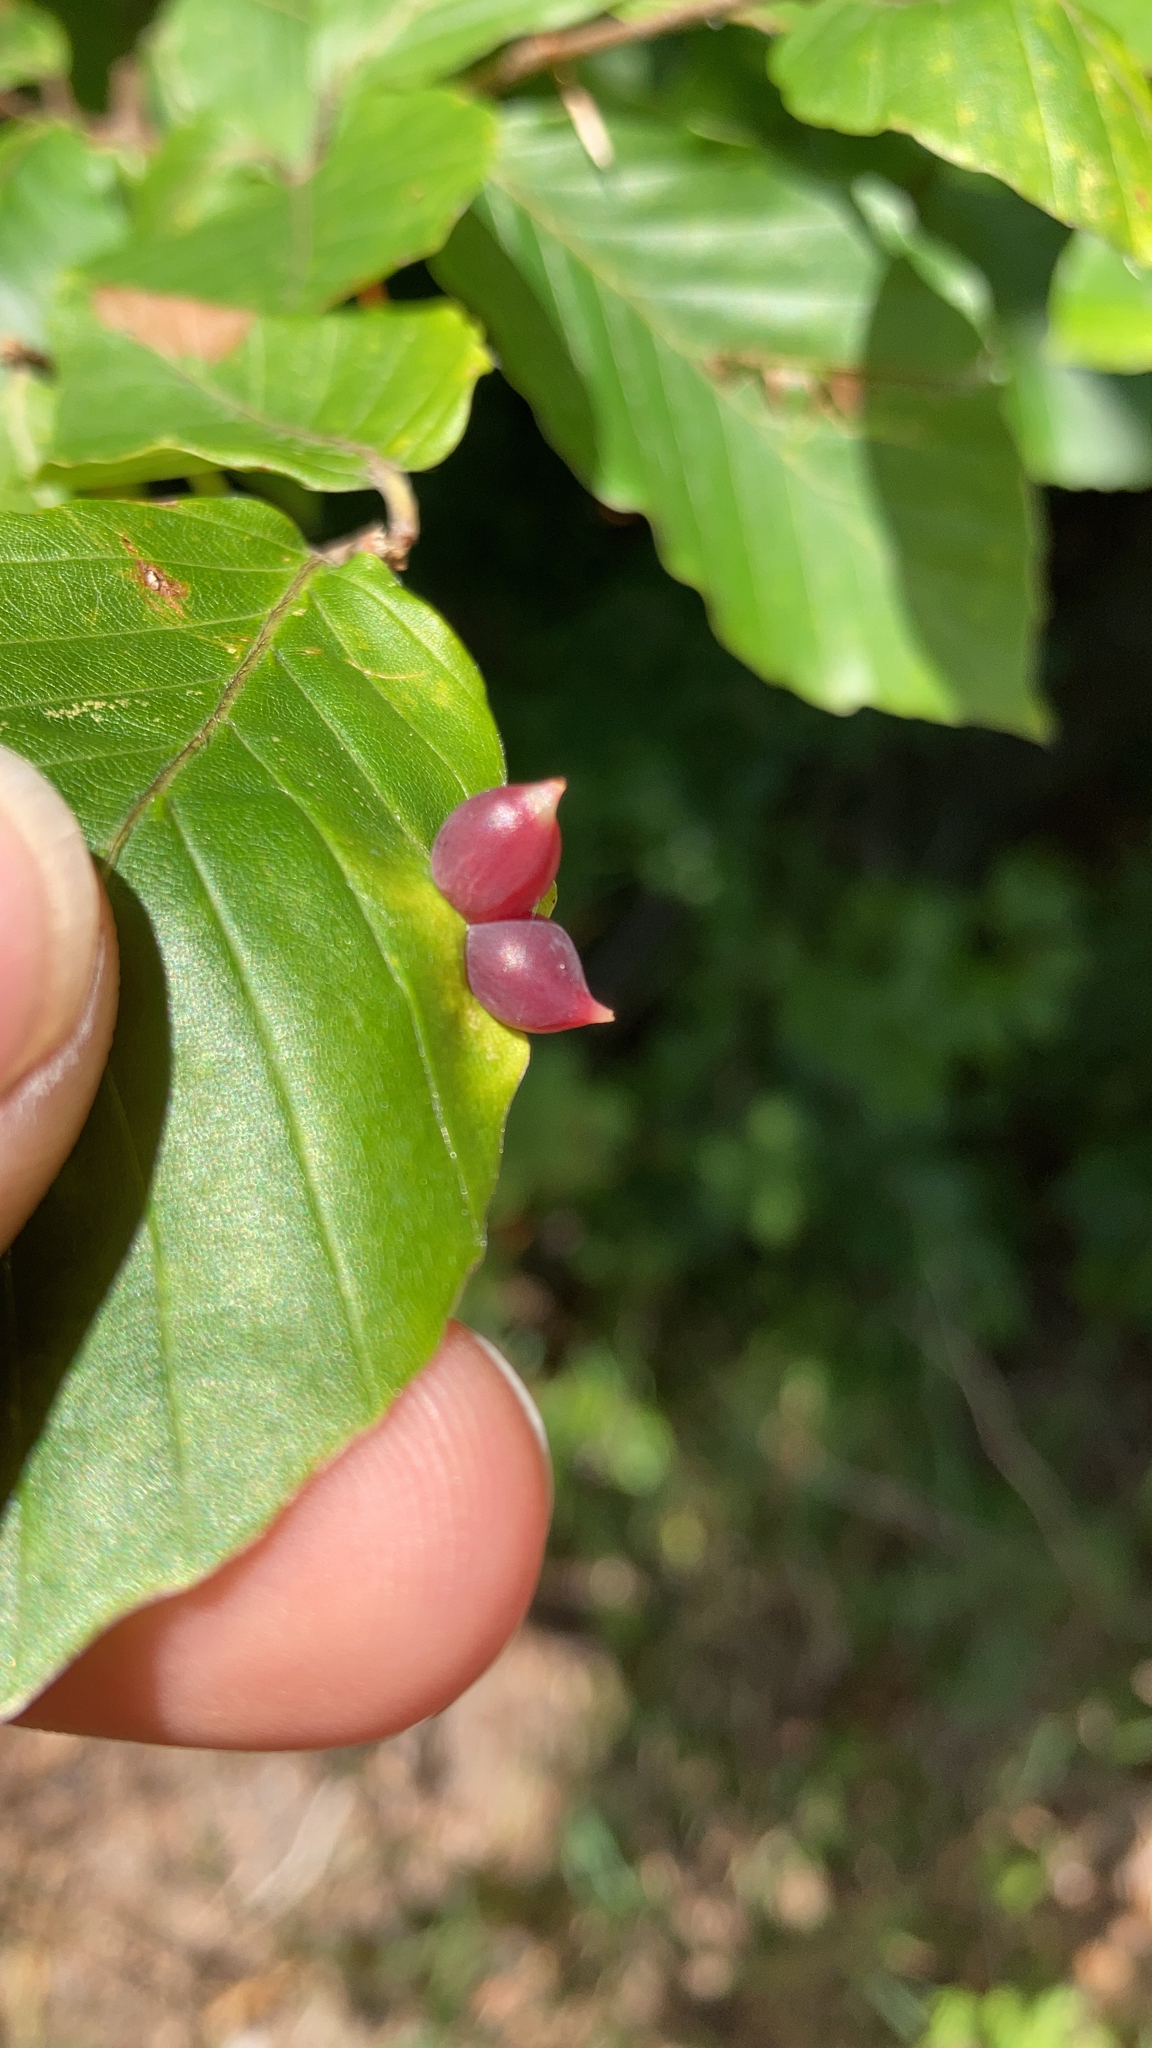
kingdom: Animalia
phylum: Arthropoda
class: Insecta
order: Diptera
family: Cecidomyiidae
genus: Mikiola
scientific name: Mikiola fagi
